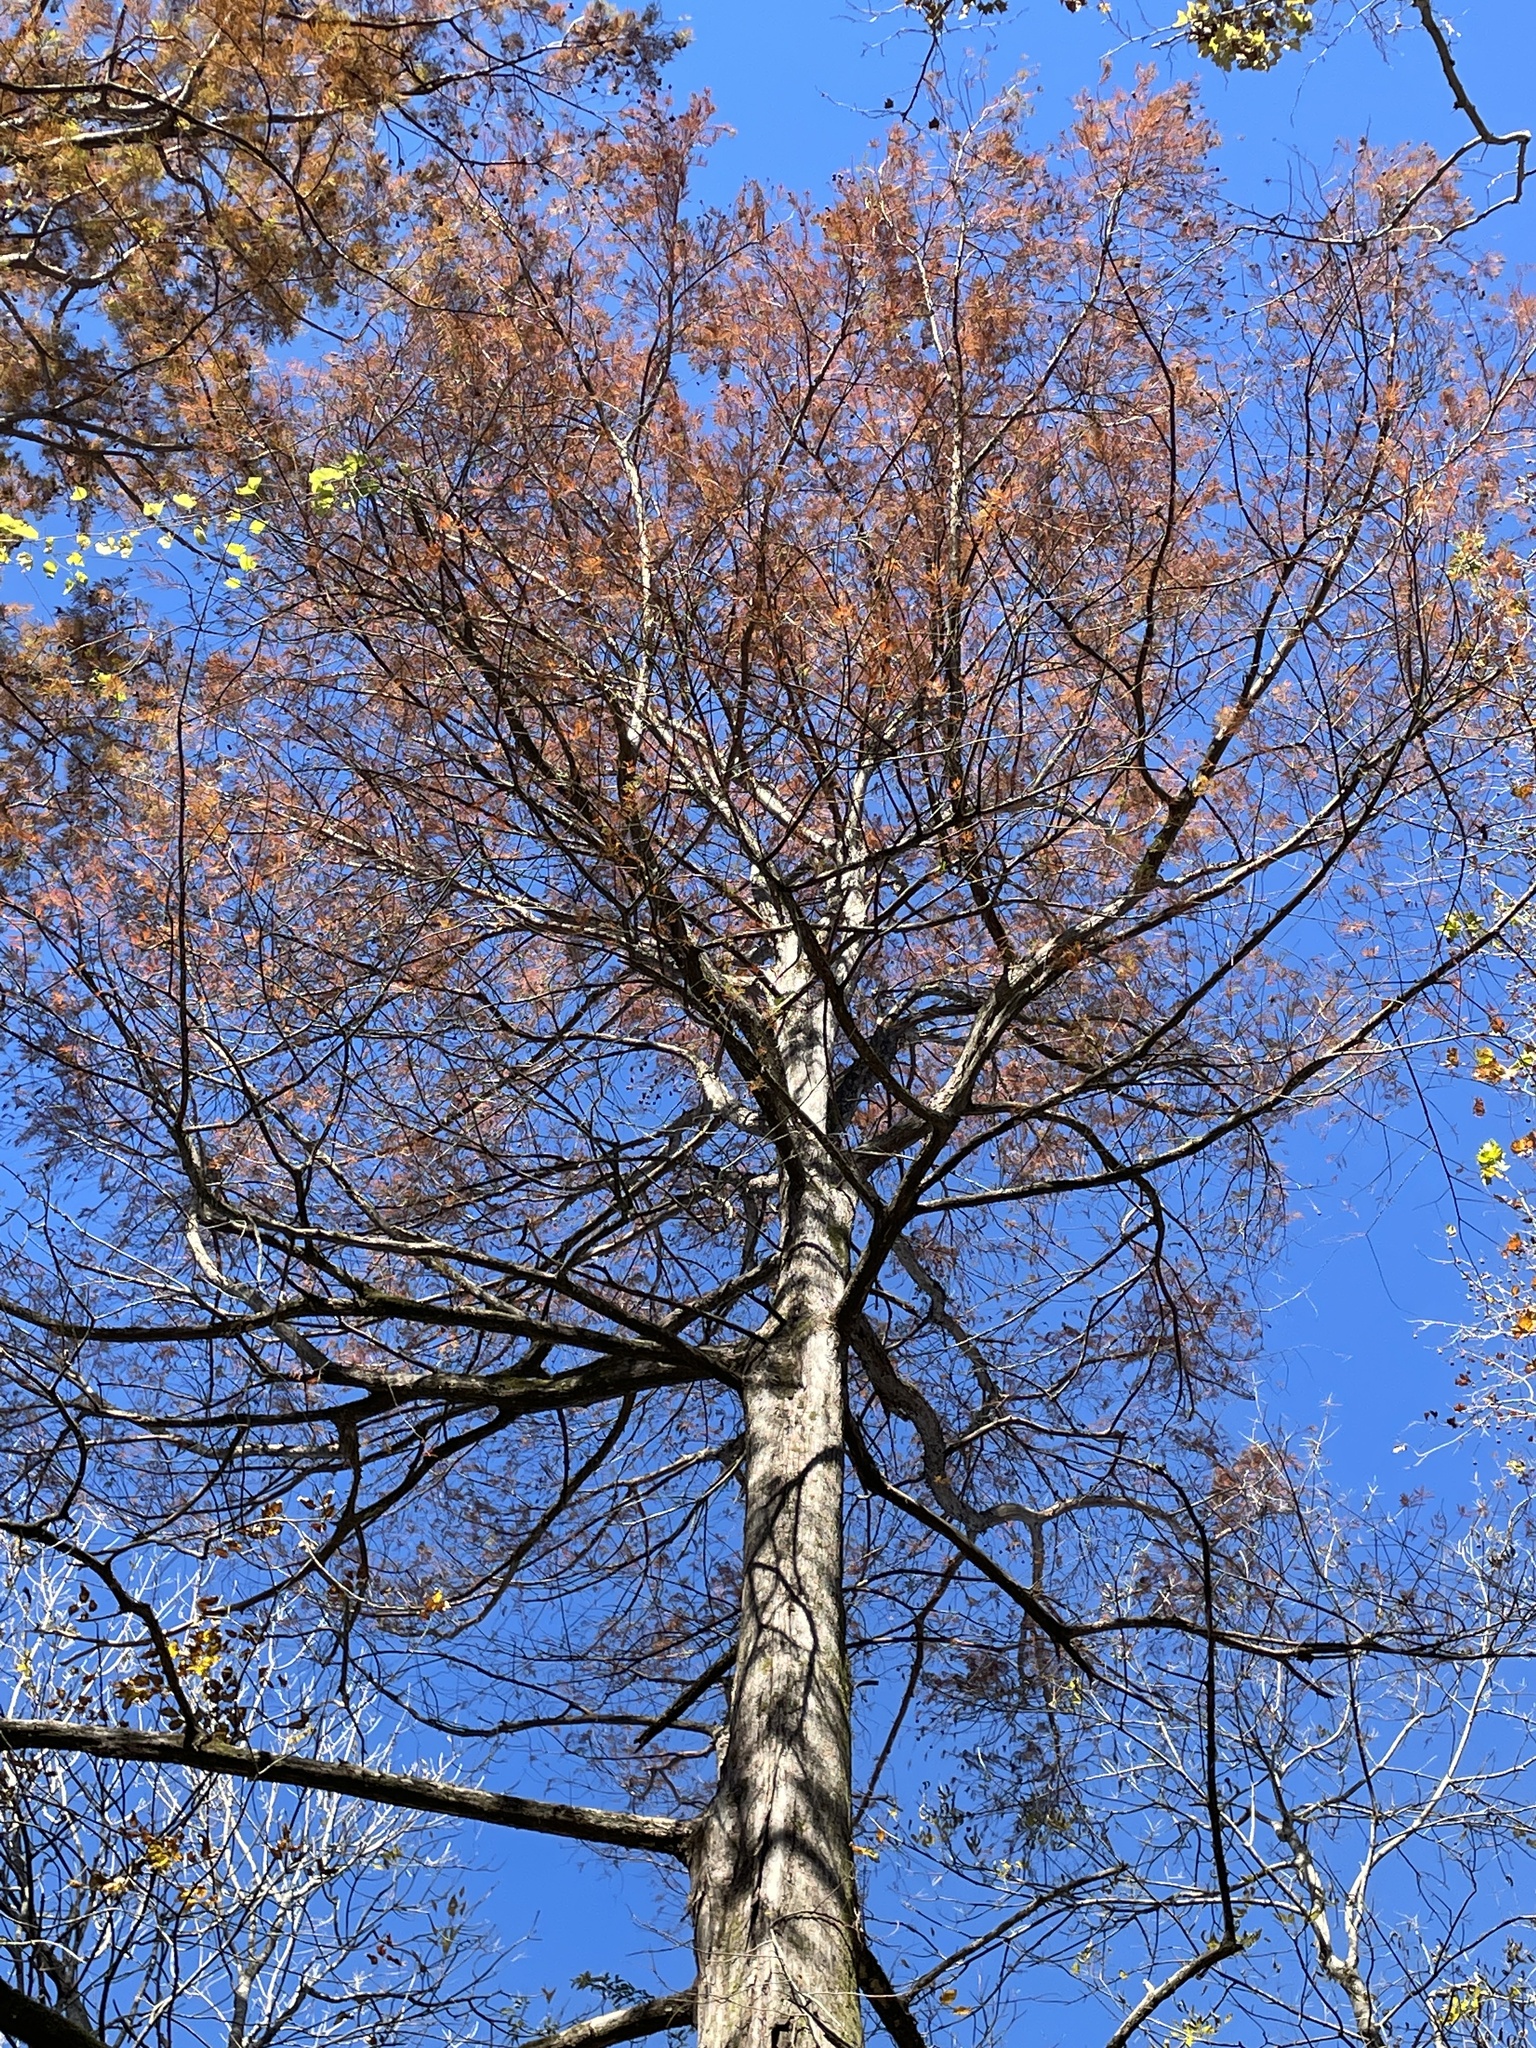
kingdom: Plantae
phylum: Tracheophyta
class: Pinopsida
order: Pinales
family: Cupressaceae
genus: Taxodium
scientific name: Taxodium distichum
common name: Bald cypress
